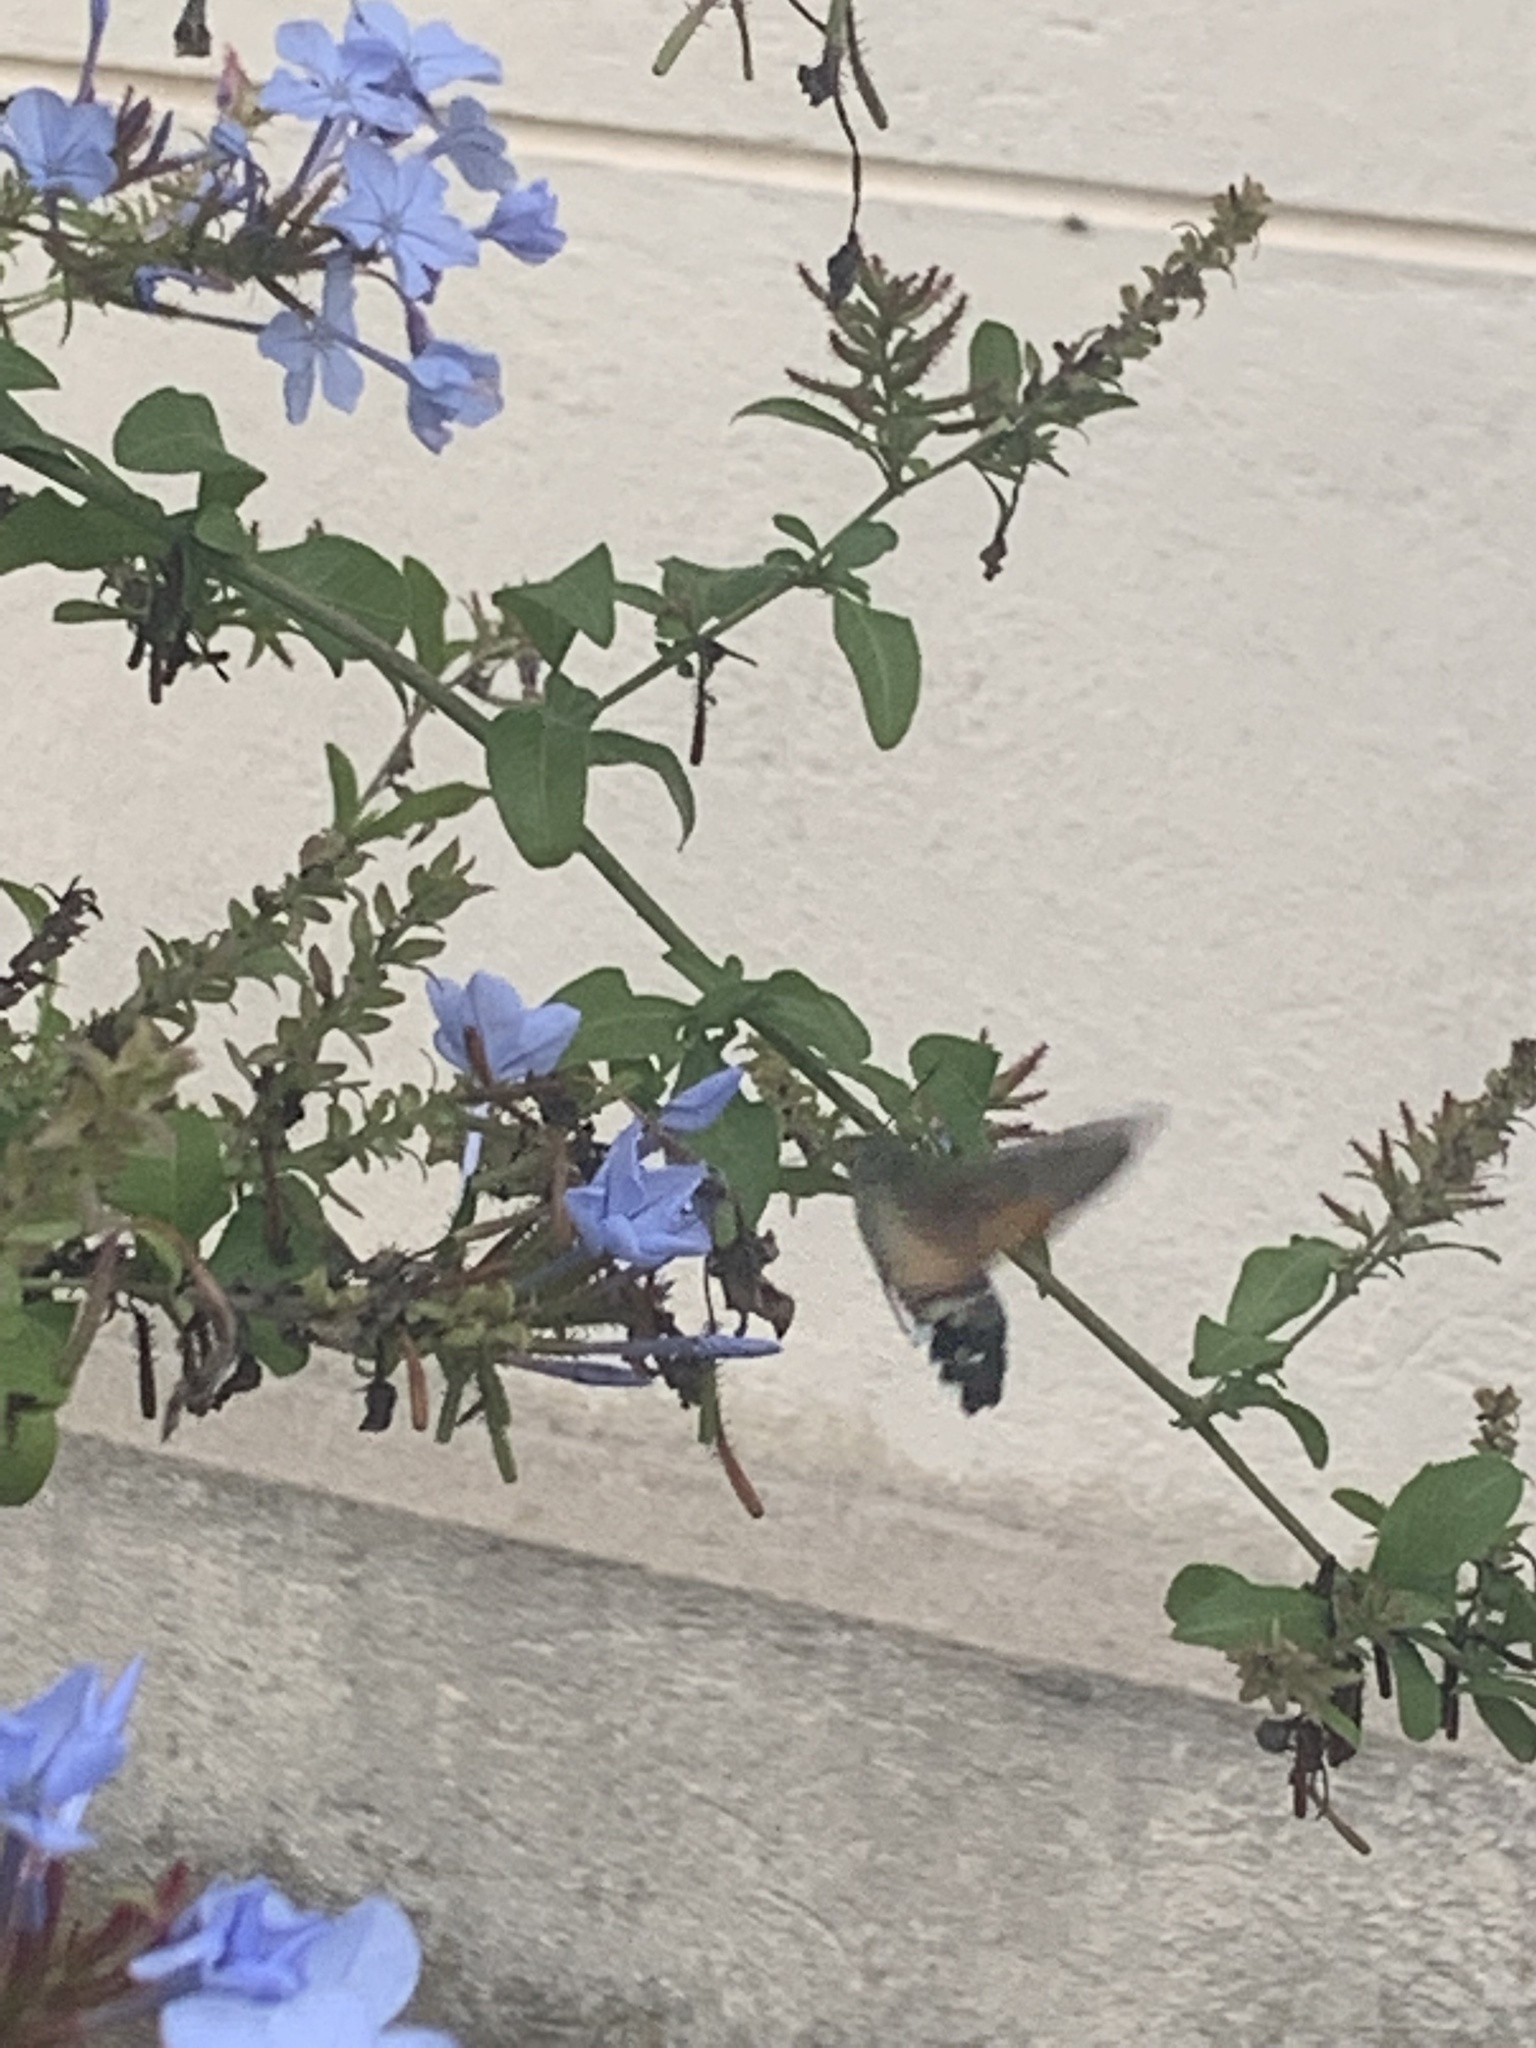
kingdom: Animalia
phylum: Arthropoda
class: Insecta
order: Lepidoptera
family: Sphingidae
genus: Macroglossum
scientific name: Macroglossum stellatarum
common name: Humming-bird hawk-moth
